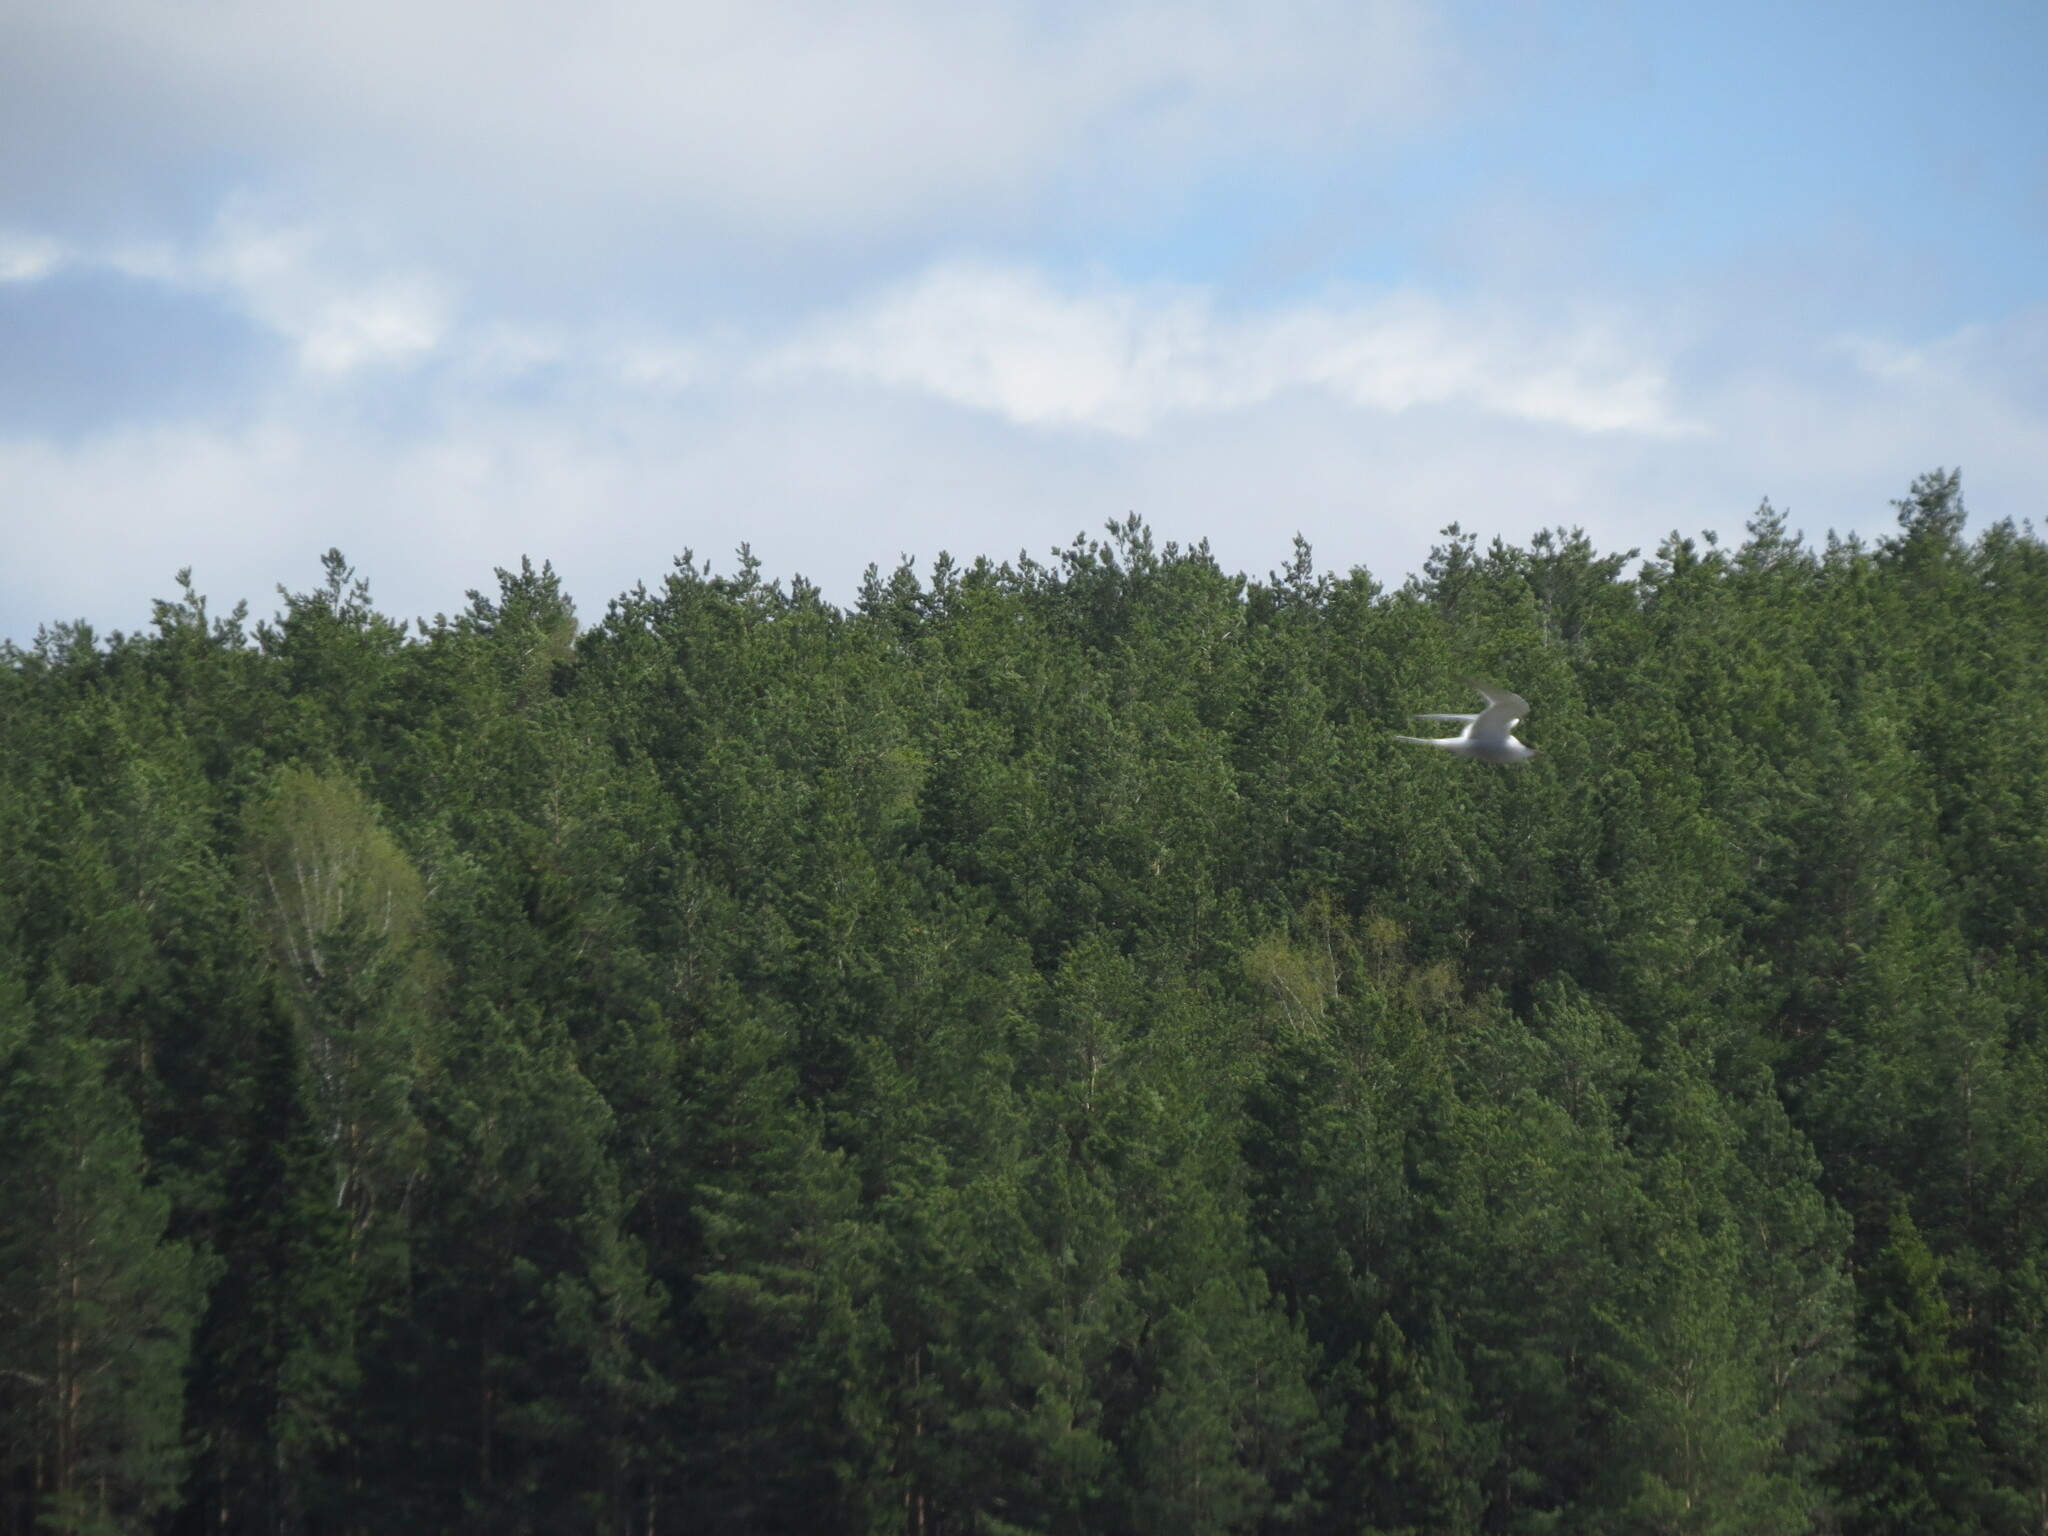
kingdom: Animalia
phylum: Chordata
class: Aves
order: Charadriiformes
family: Laridae
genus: Sterna
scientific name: Sterna hirundo
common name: Common tern
